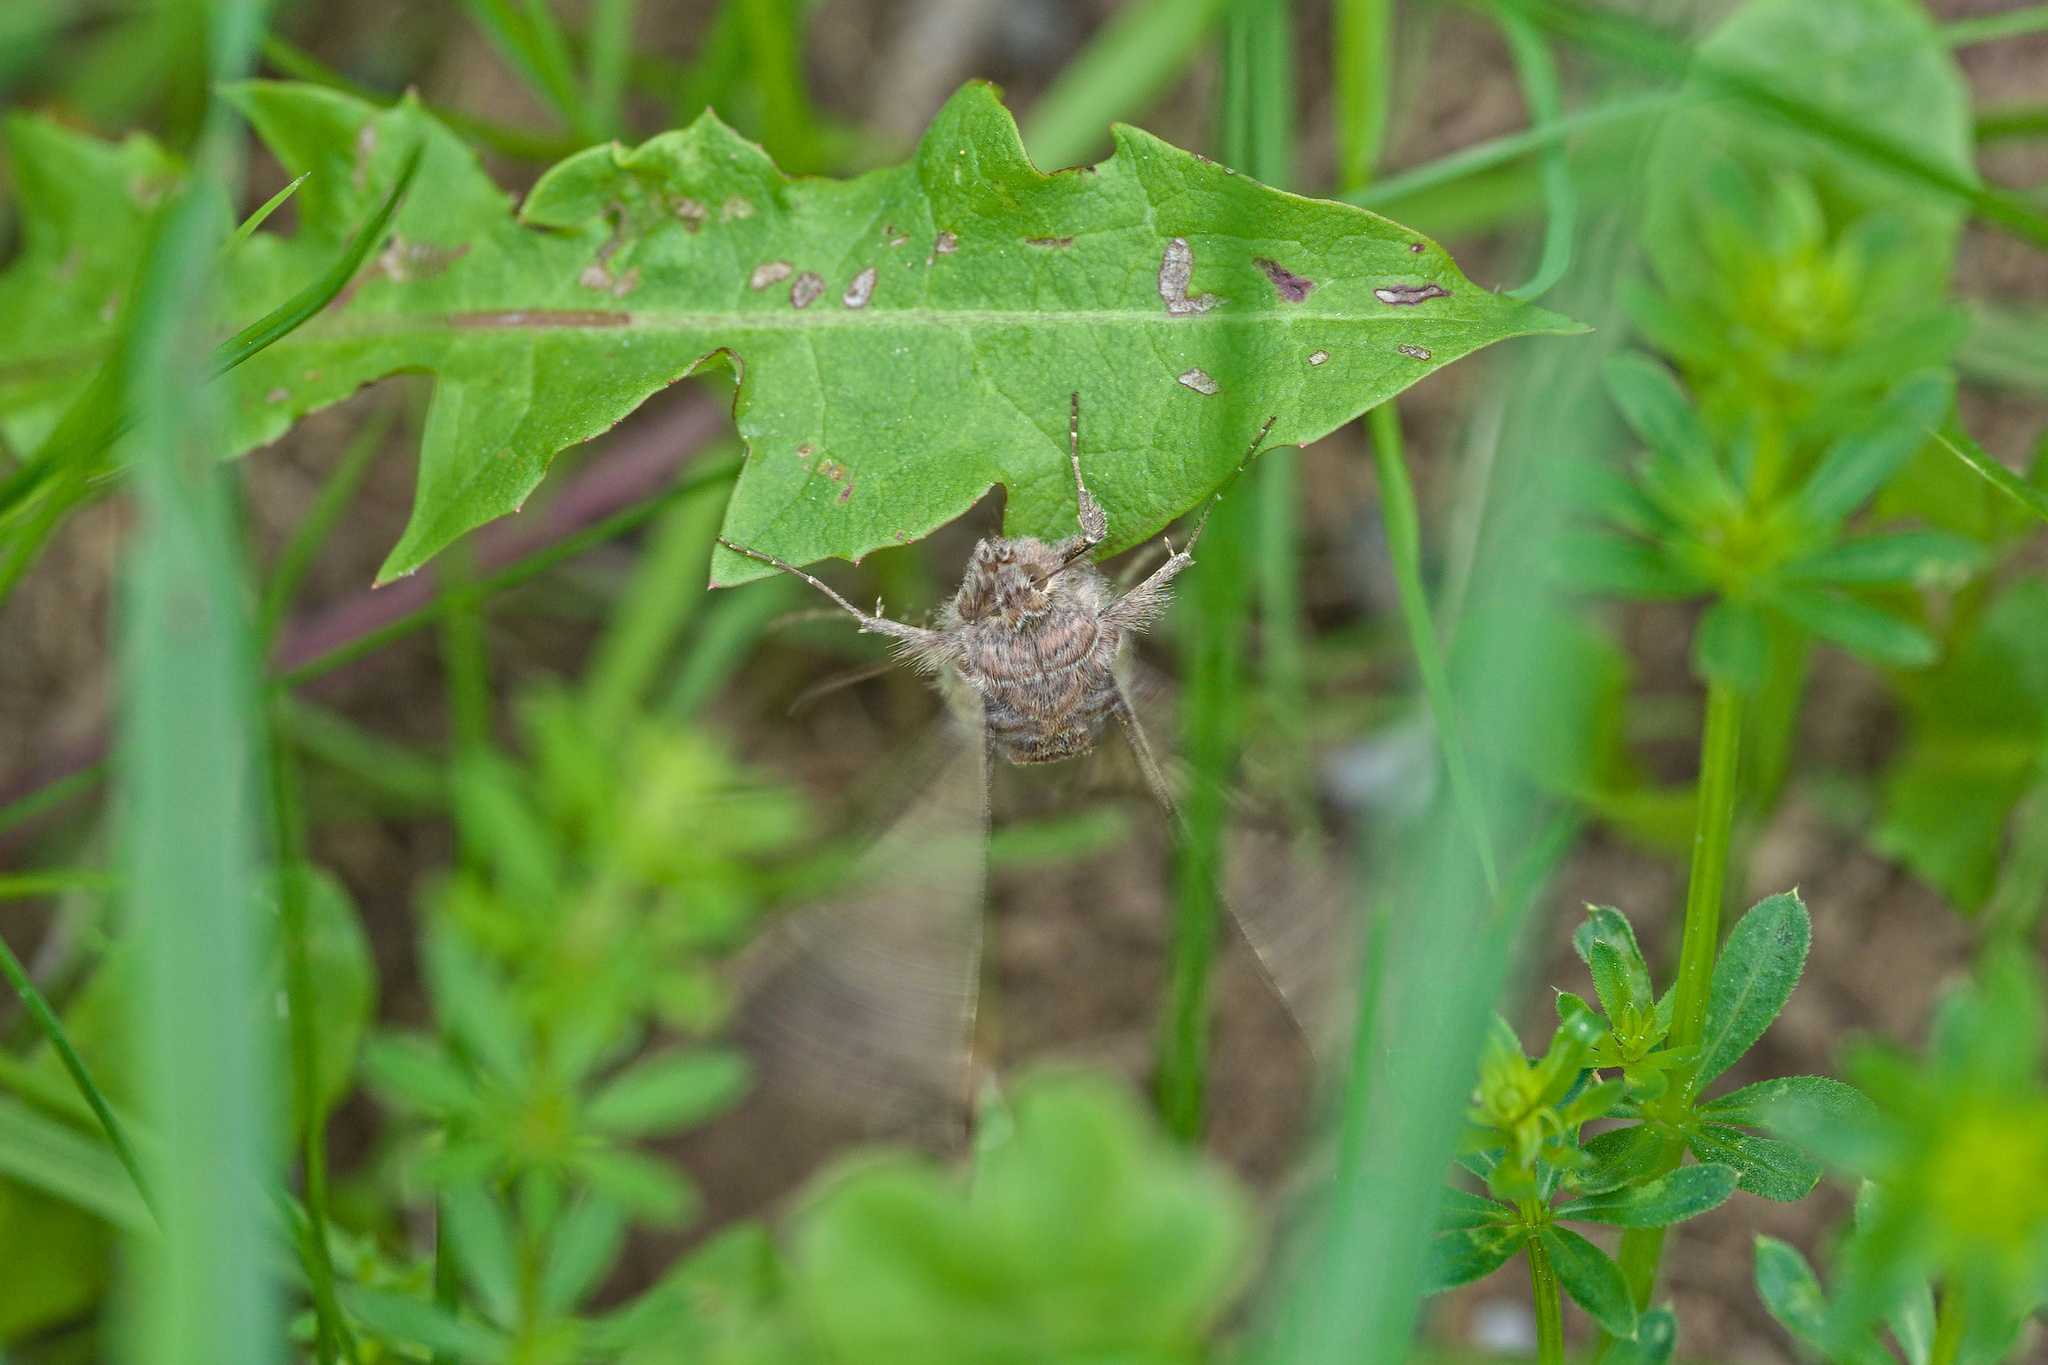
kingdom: Animalia
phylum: Arthropoda
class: Insecta
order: Lepidoptera
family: Noctuidae
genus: Autographa
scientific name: Autographa gamma
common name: Silver y
